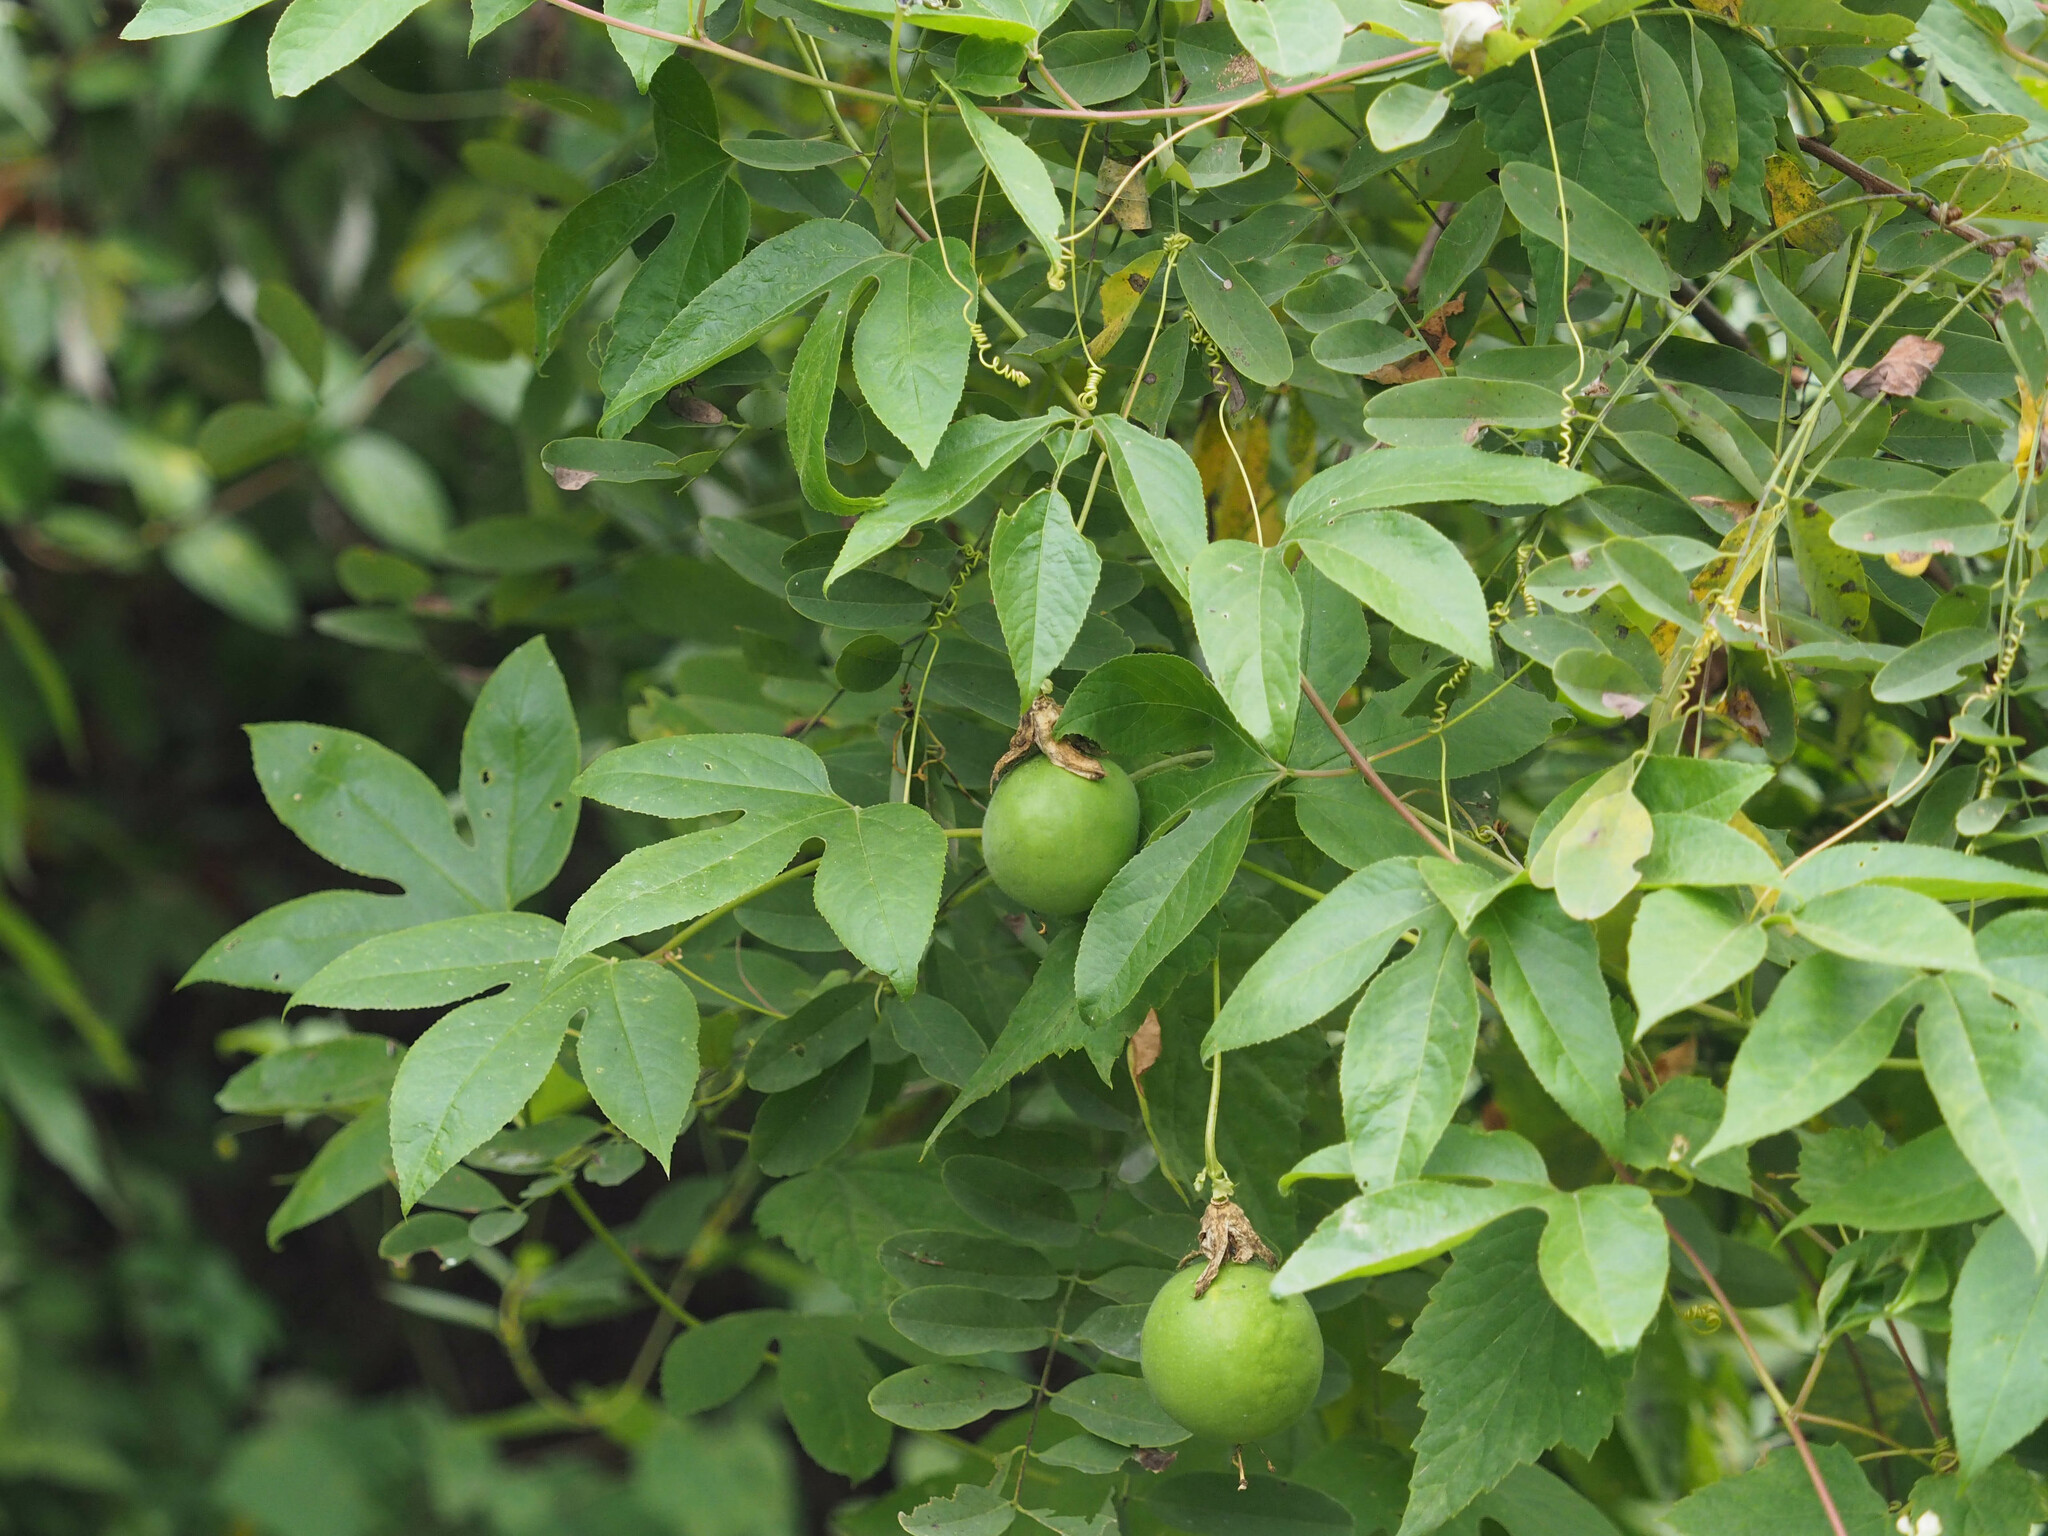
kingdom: Plantae
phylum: Tracheophyta
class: Magnoliopsida
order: Malpighiales
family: Passifloraceae
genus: Passiflora
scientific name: Passiflora incarnata
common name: Apricot-vine
